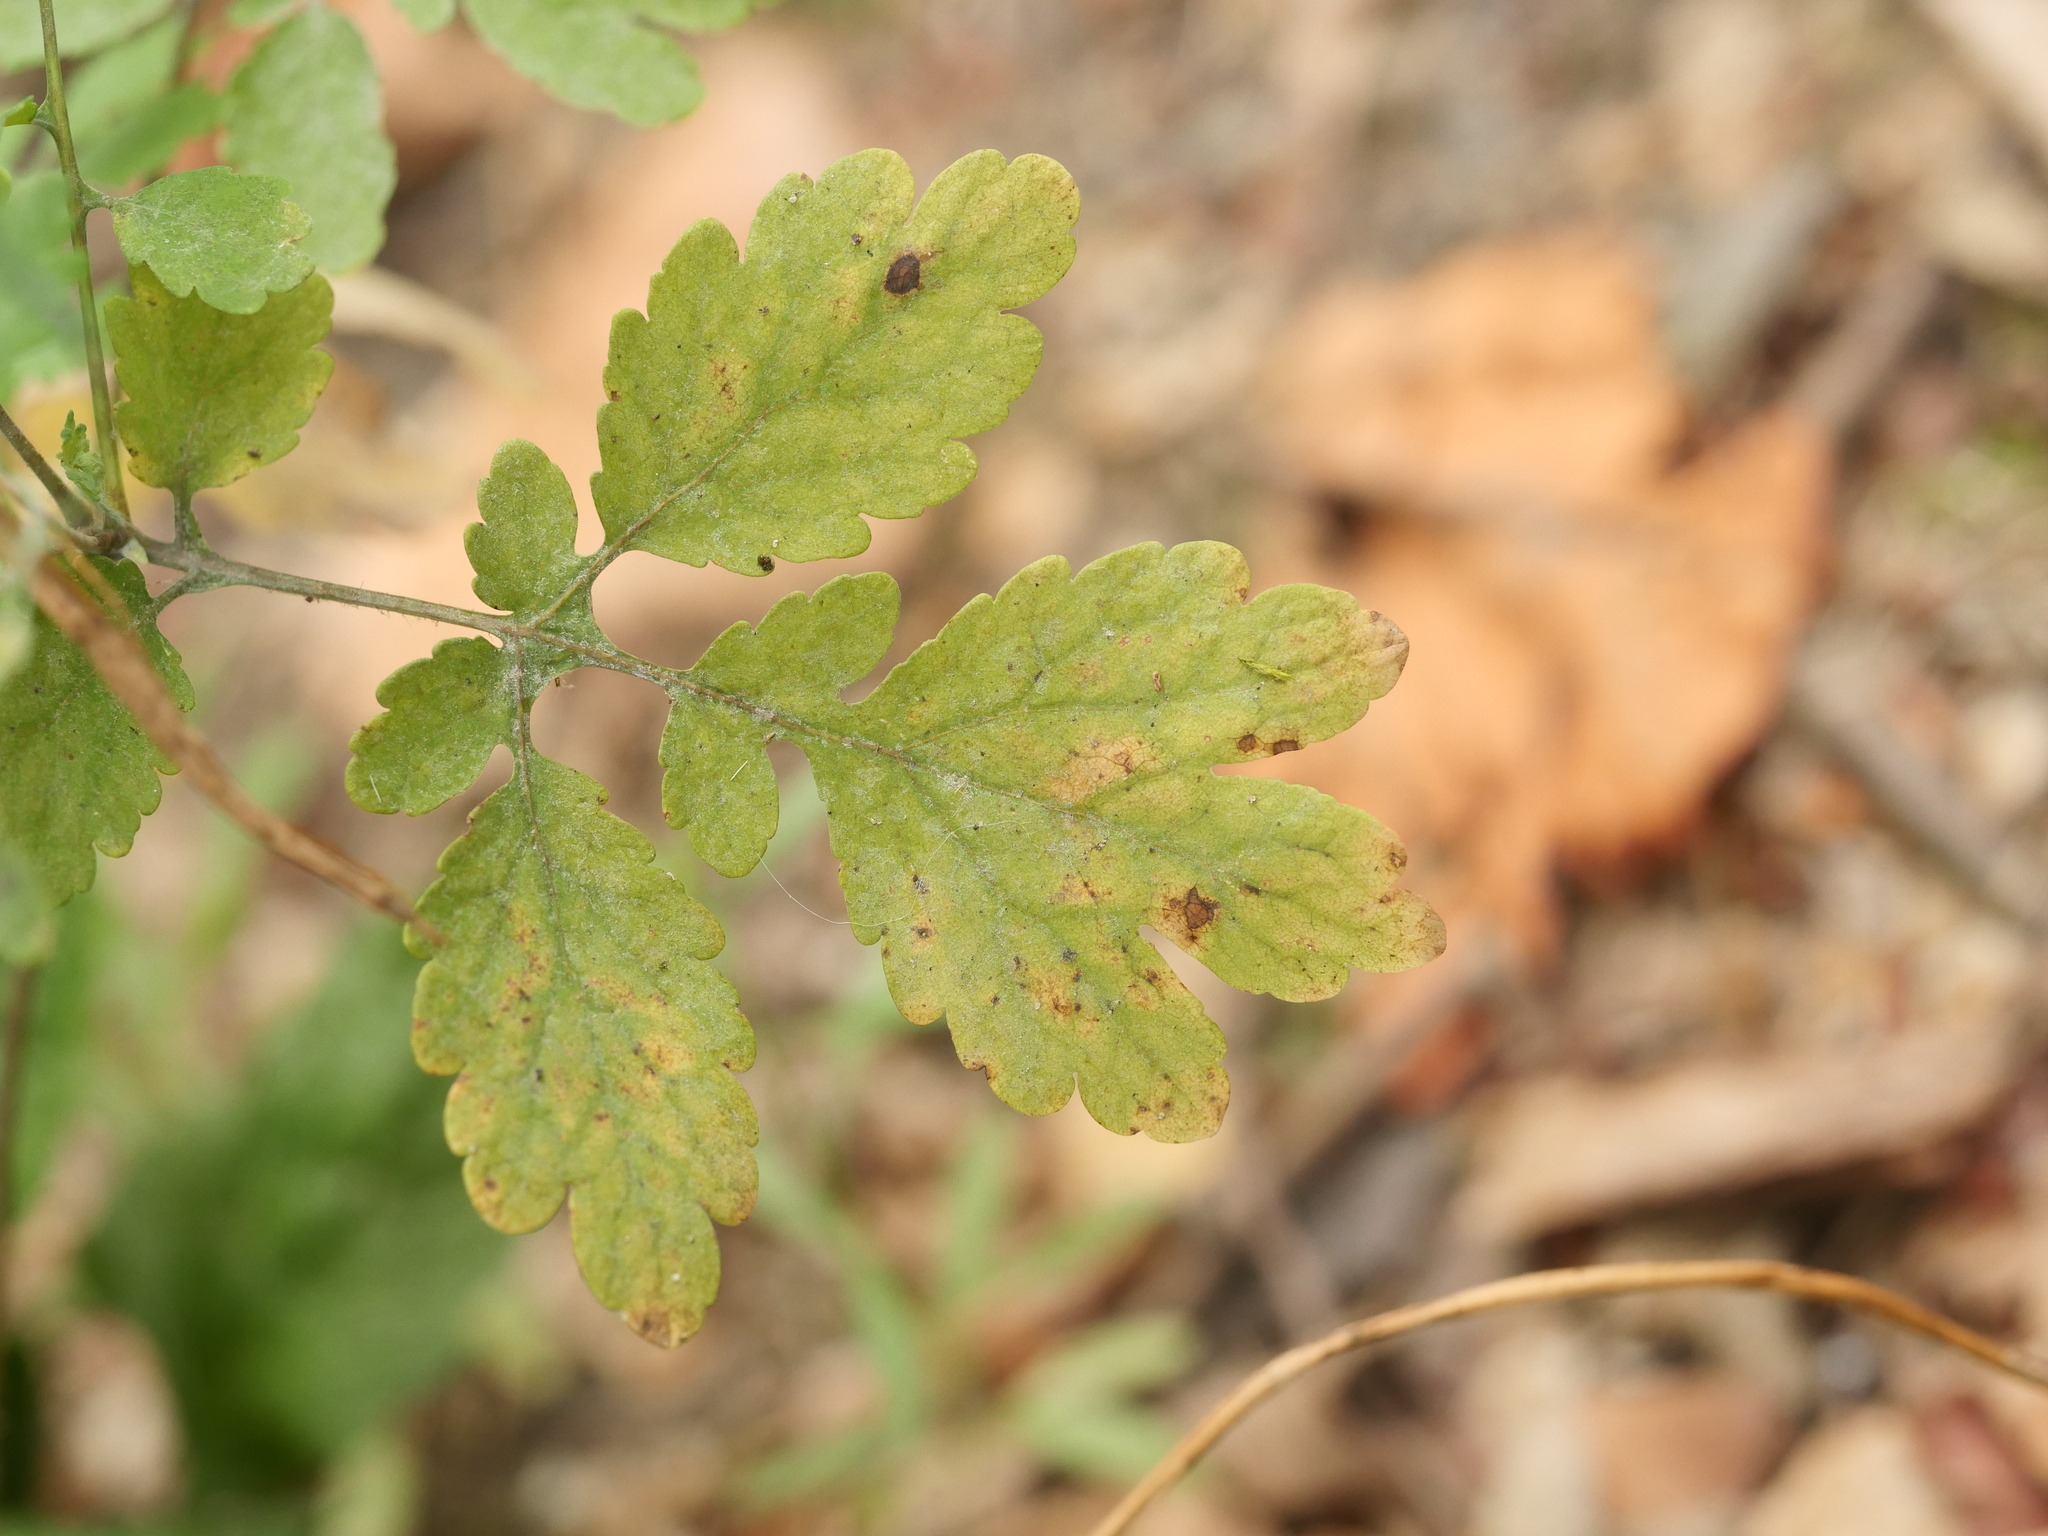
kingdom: Plantae
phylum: Tracheophyta
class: Magnoliopsida
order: Ranunculales
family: Papaveraceae
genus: Chelidonium
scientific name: Chelidonium majus
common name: Greater celandine
